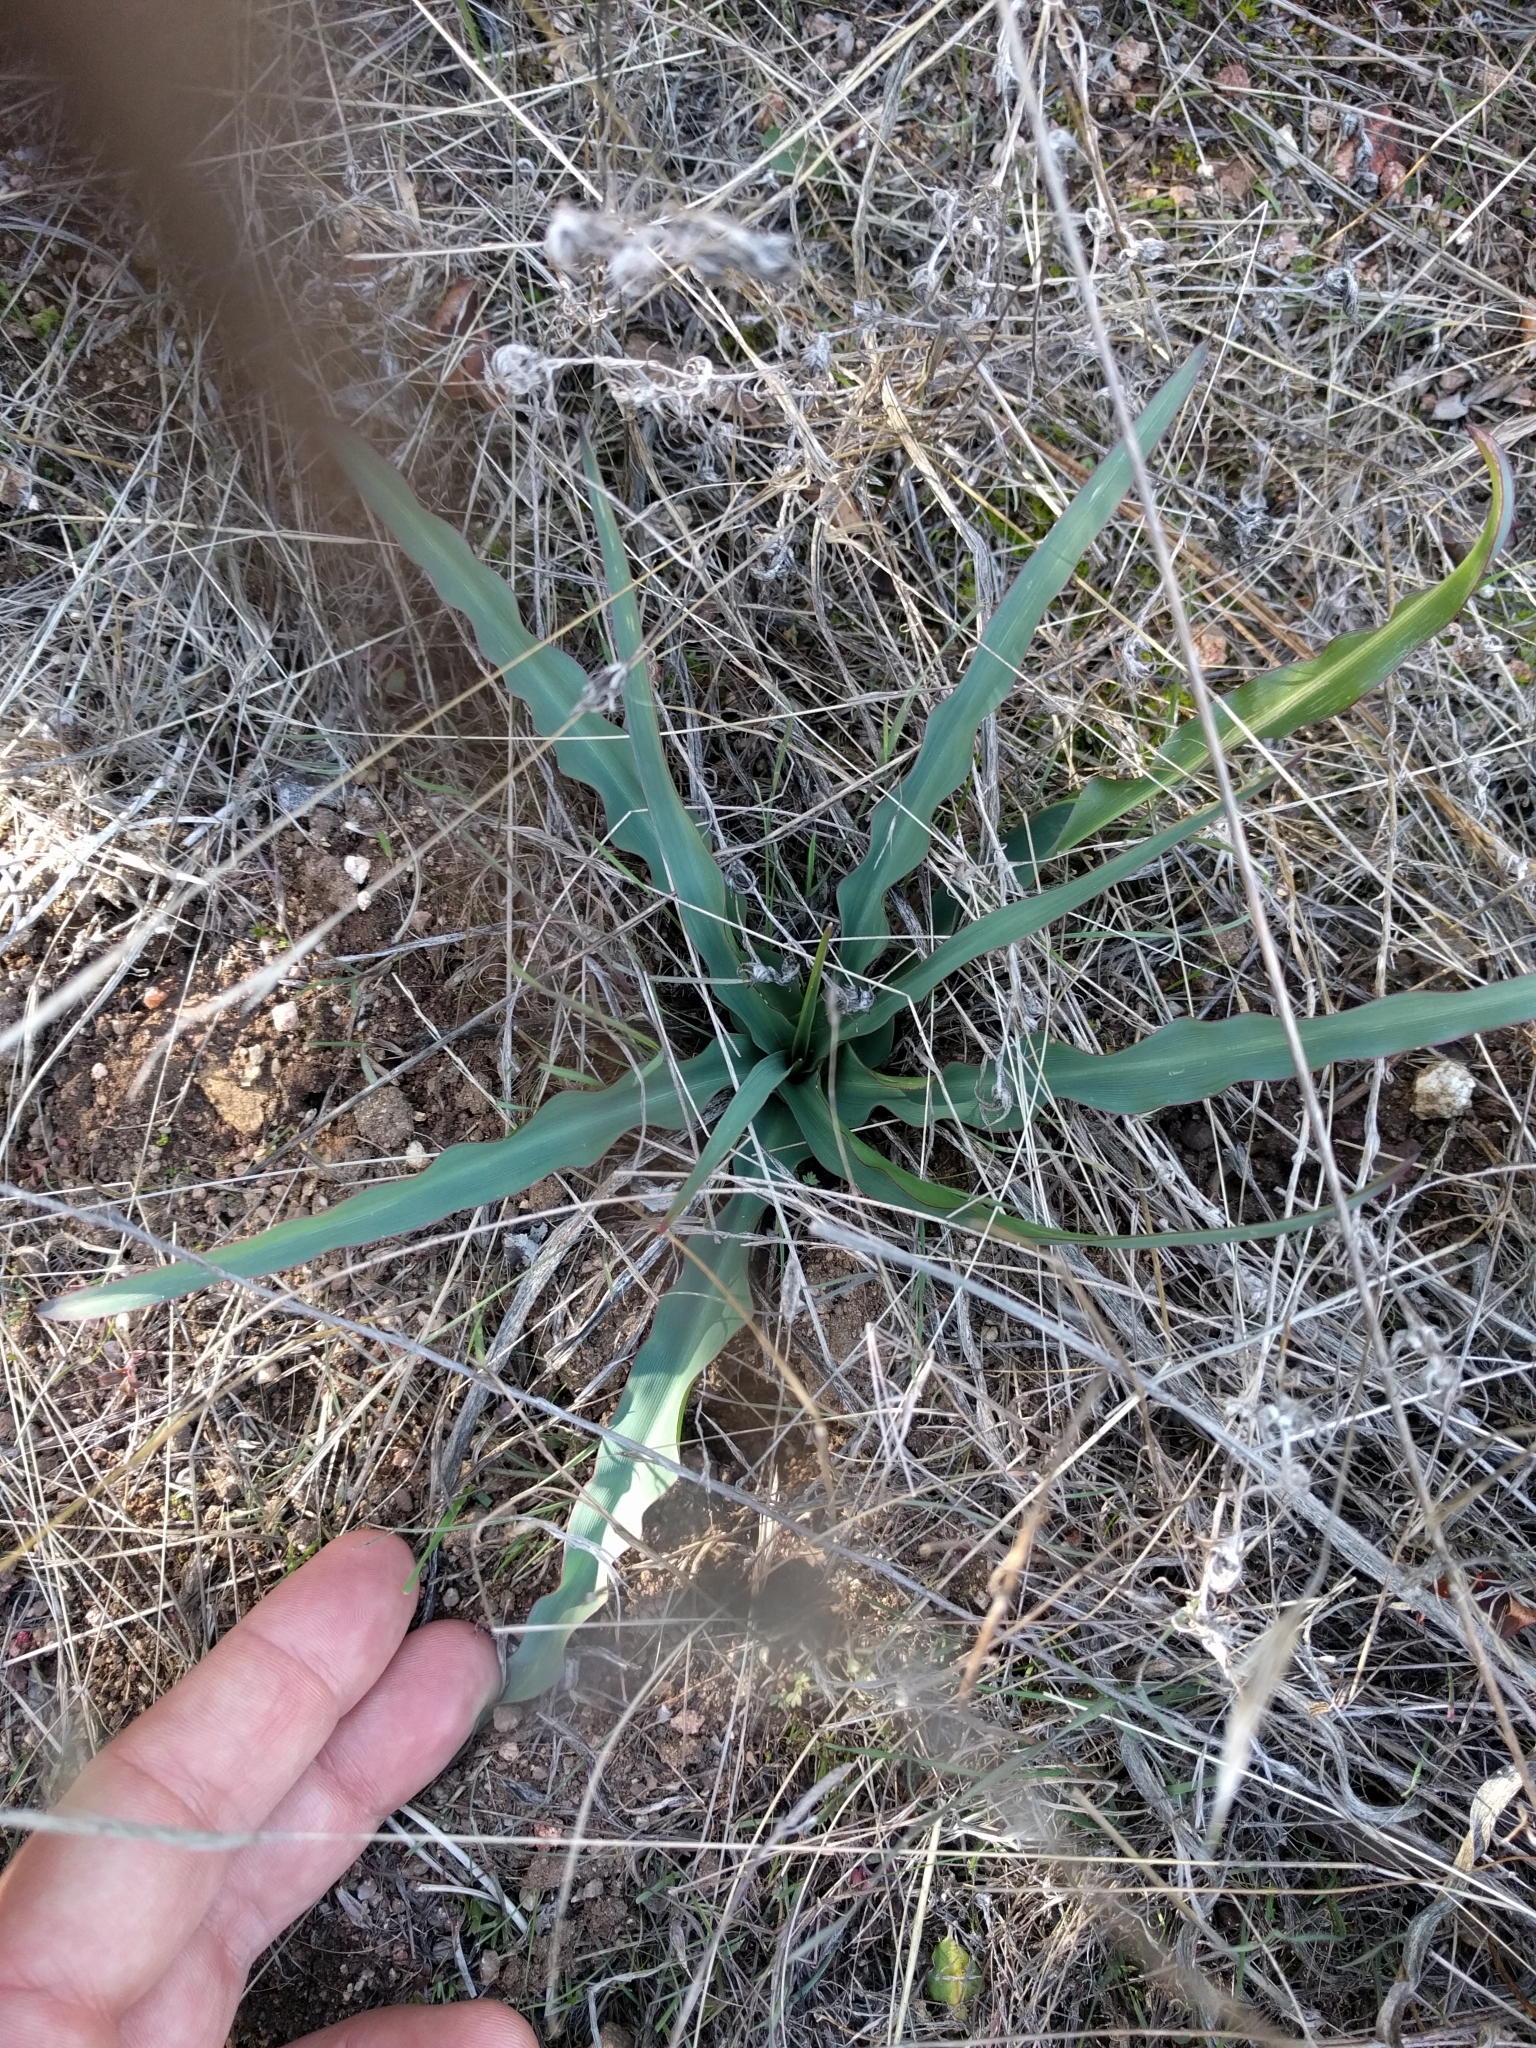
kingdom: Plantae
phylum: Tracheophyta
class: Liliopsida
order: Asparagales
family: Asparagaceae
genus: Chlorogalum
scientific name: Chlorogalum pomeridianum
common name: Amole
